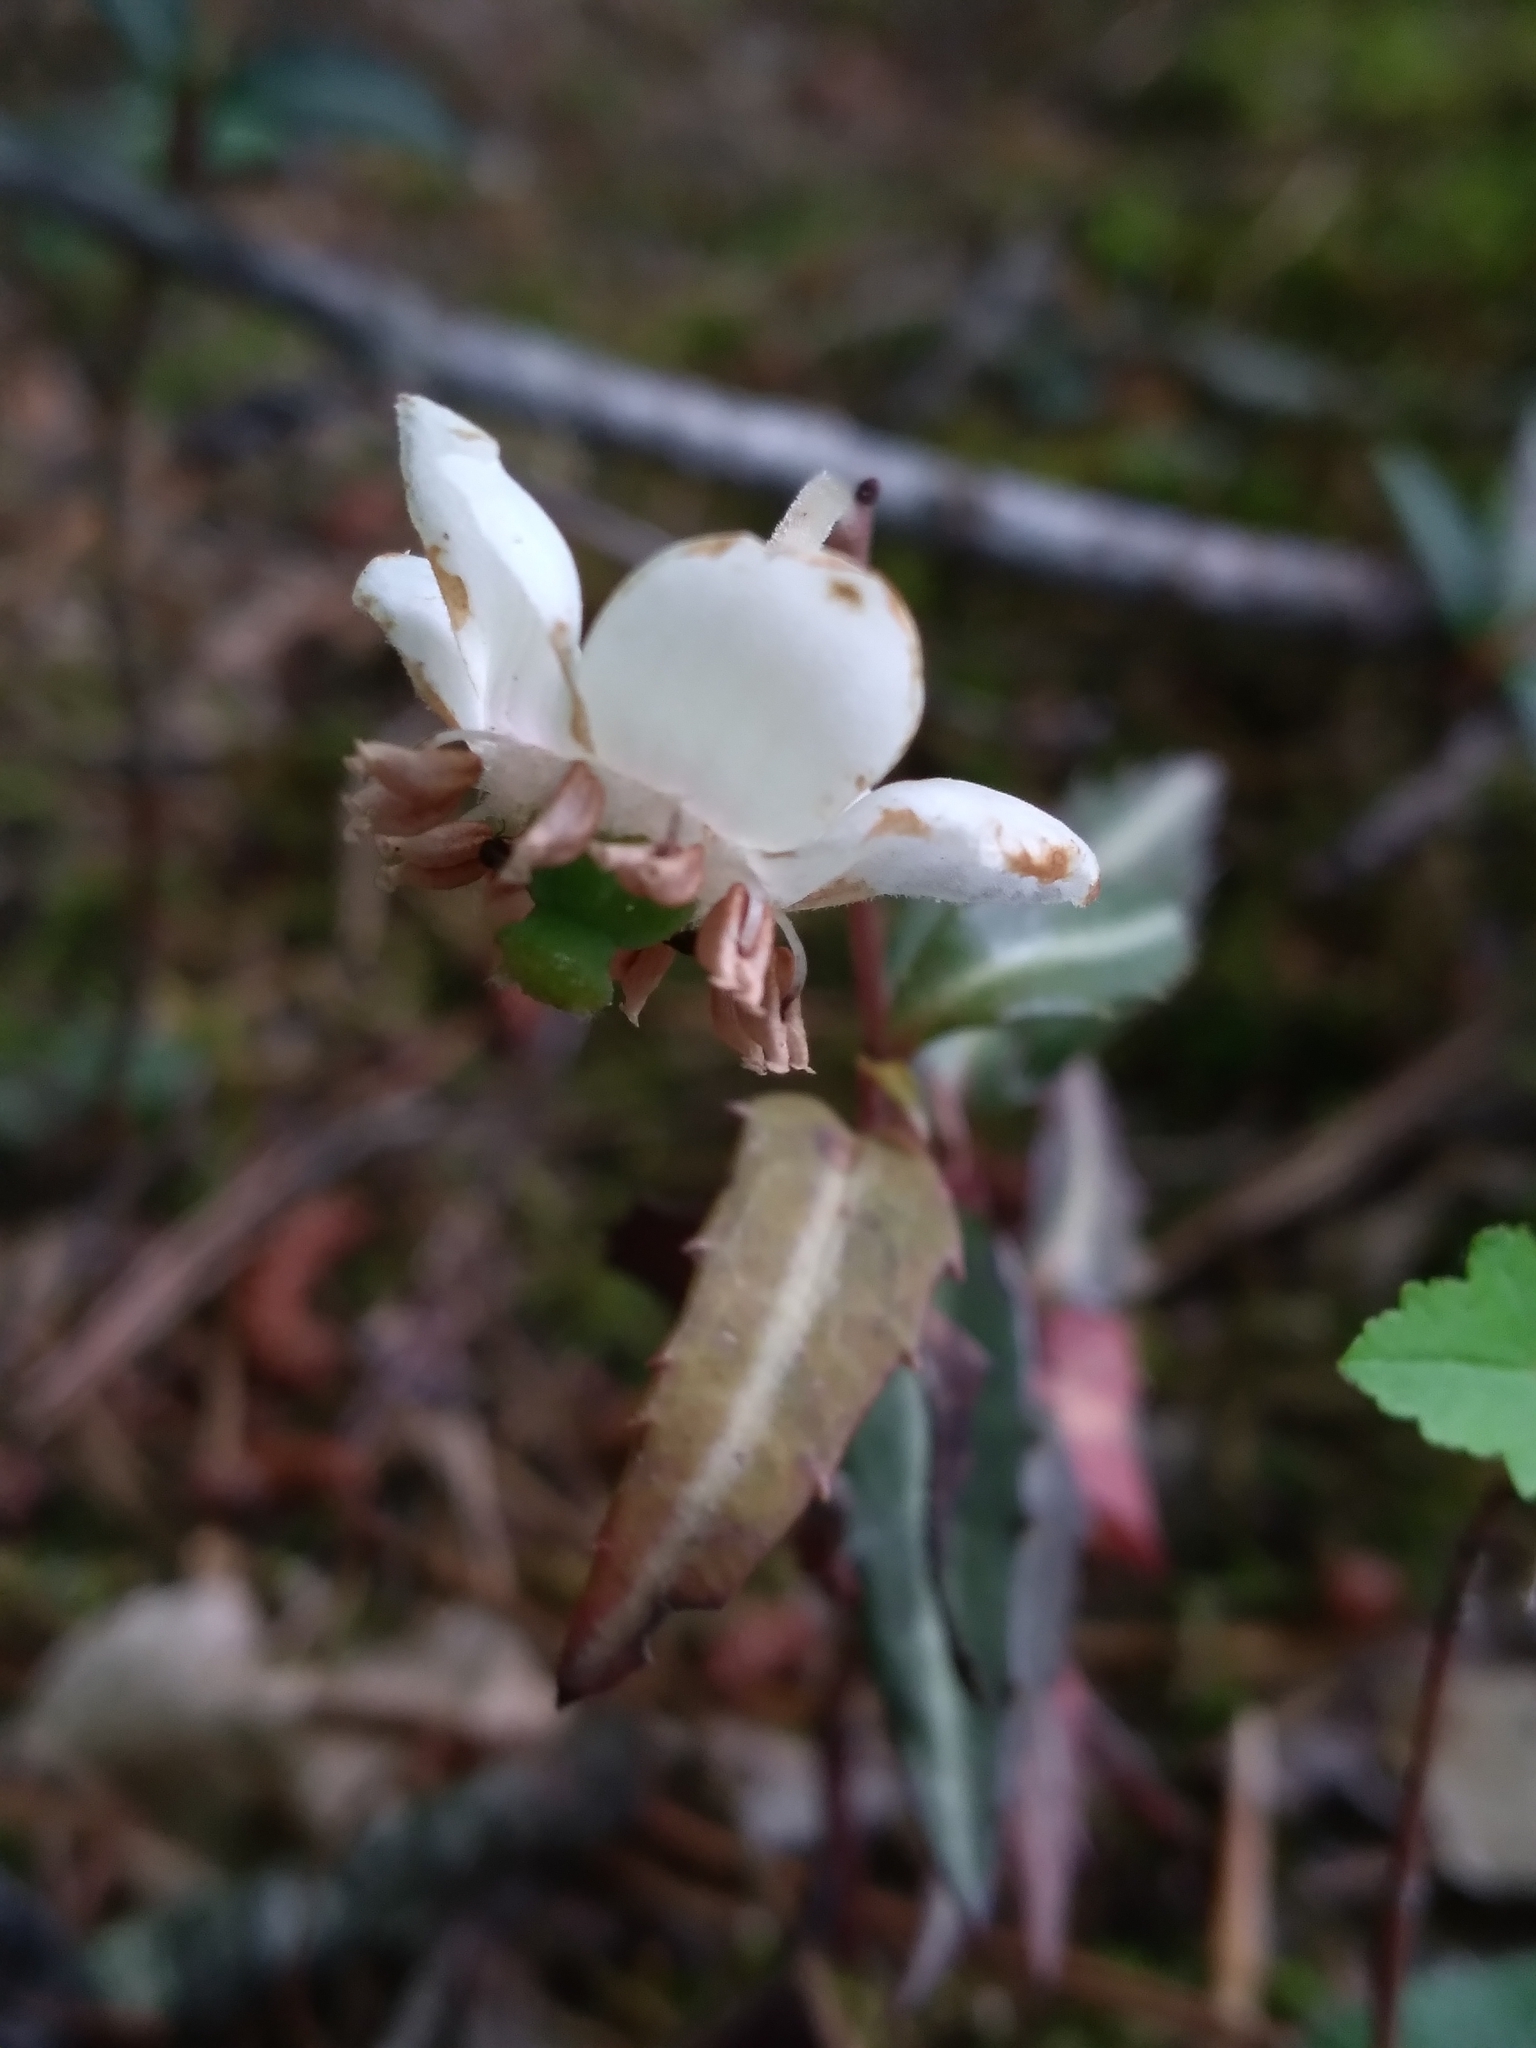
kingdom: Plantae
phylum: Tracheophyta
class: Magnoliopsida
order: Ericales
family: Ericaceae
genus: Chimaphila
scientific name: Chimaphila maculata
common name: Spotted pipsissewa
